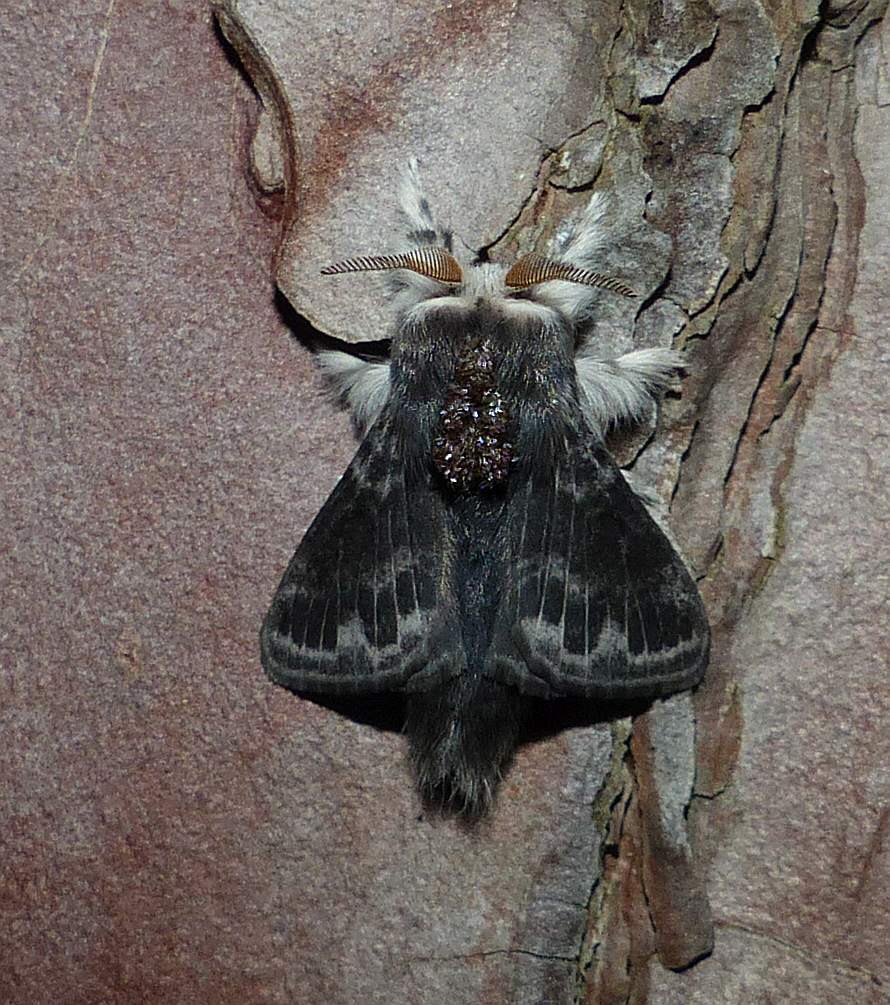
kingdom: Animalia
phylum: Arthropoda
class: Insecta
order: Lepidoptera
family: Lasiocampidae
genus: Tolype
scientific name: Tolype laricis
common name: Larch tolype moth
